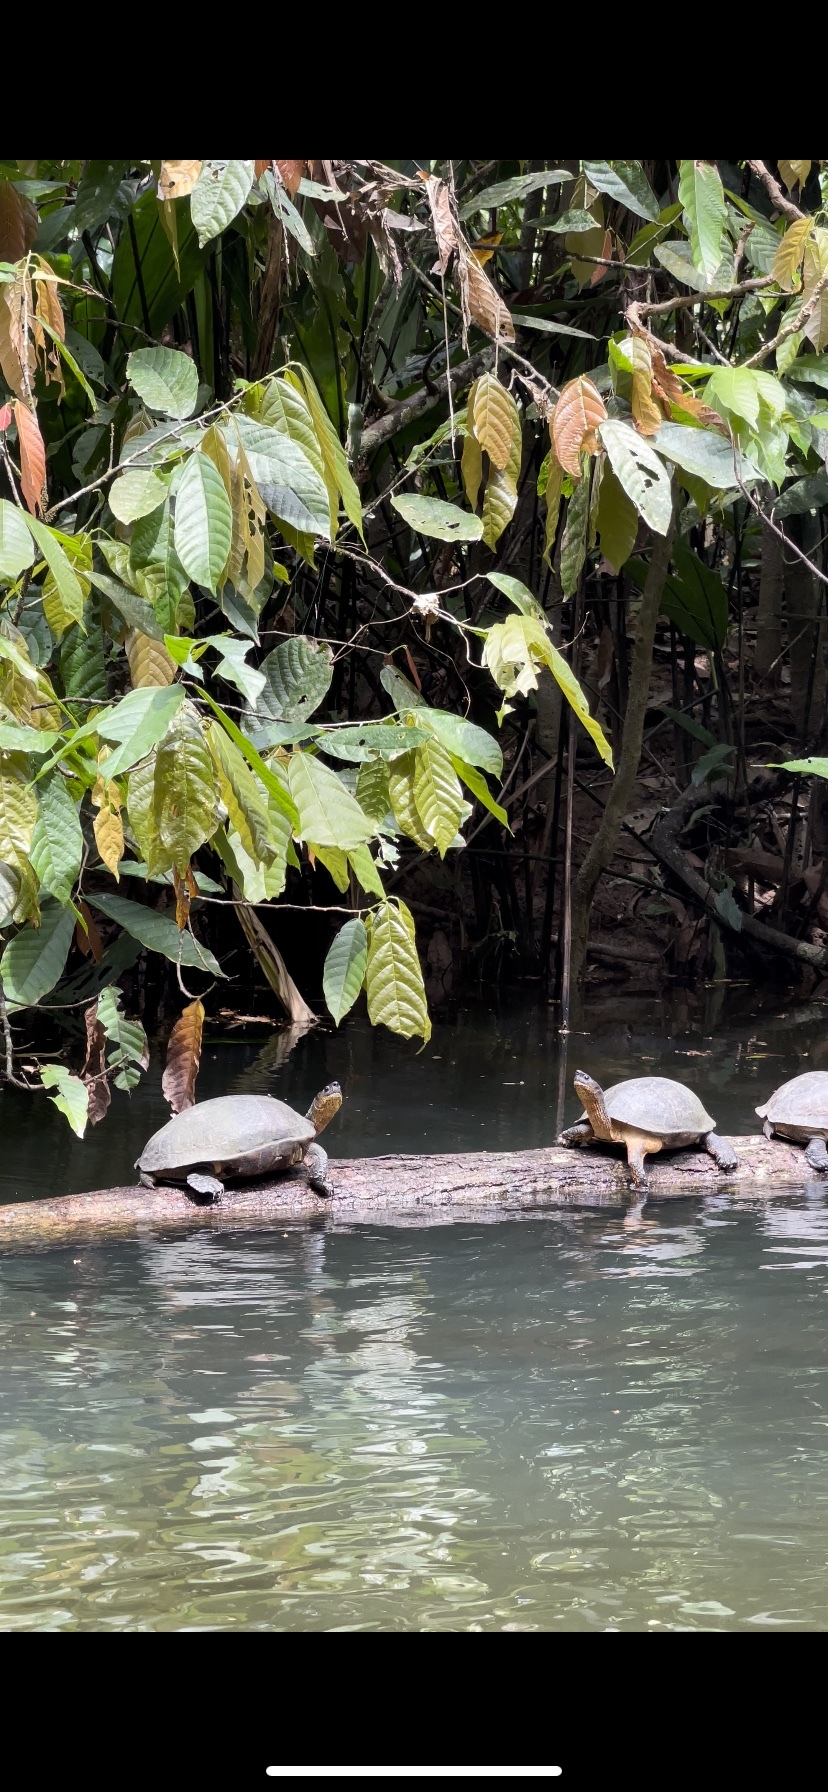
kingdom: Animalia
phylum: Chordata
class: Testudines
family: Geoemydidae
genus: Rhinoclemmys
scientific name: Rhinoclemmys funerea
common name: Black wood turtle
